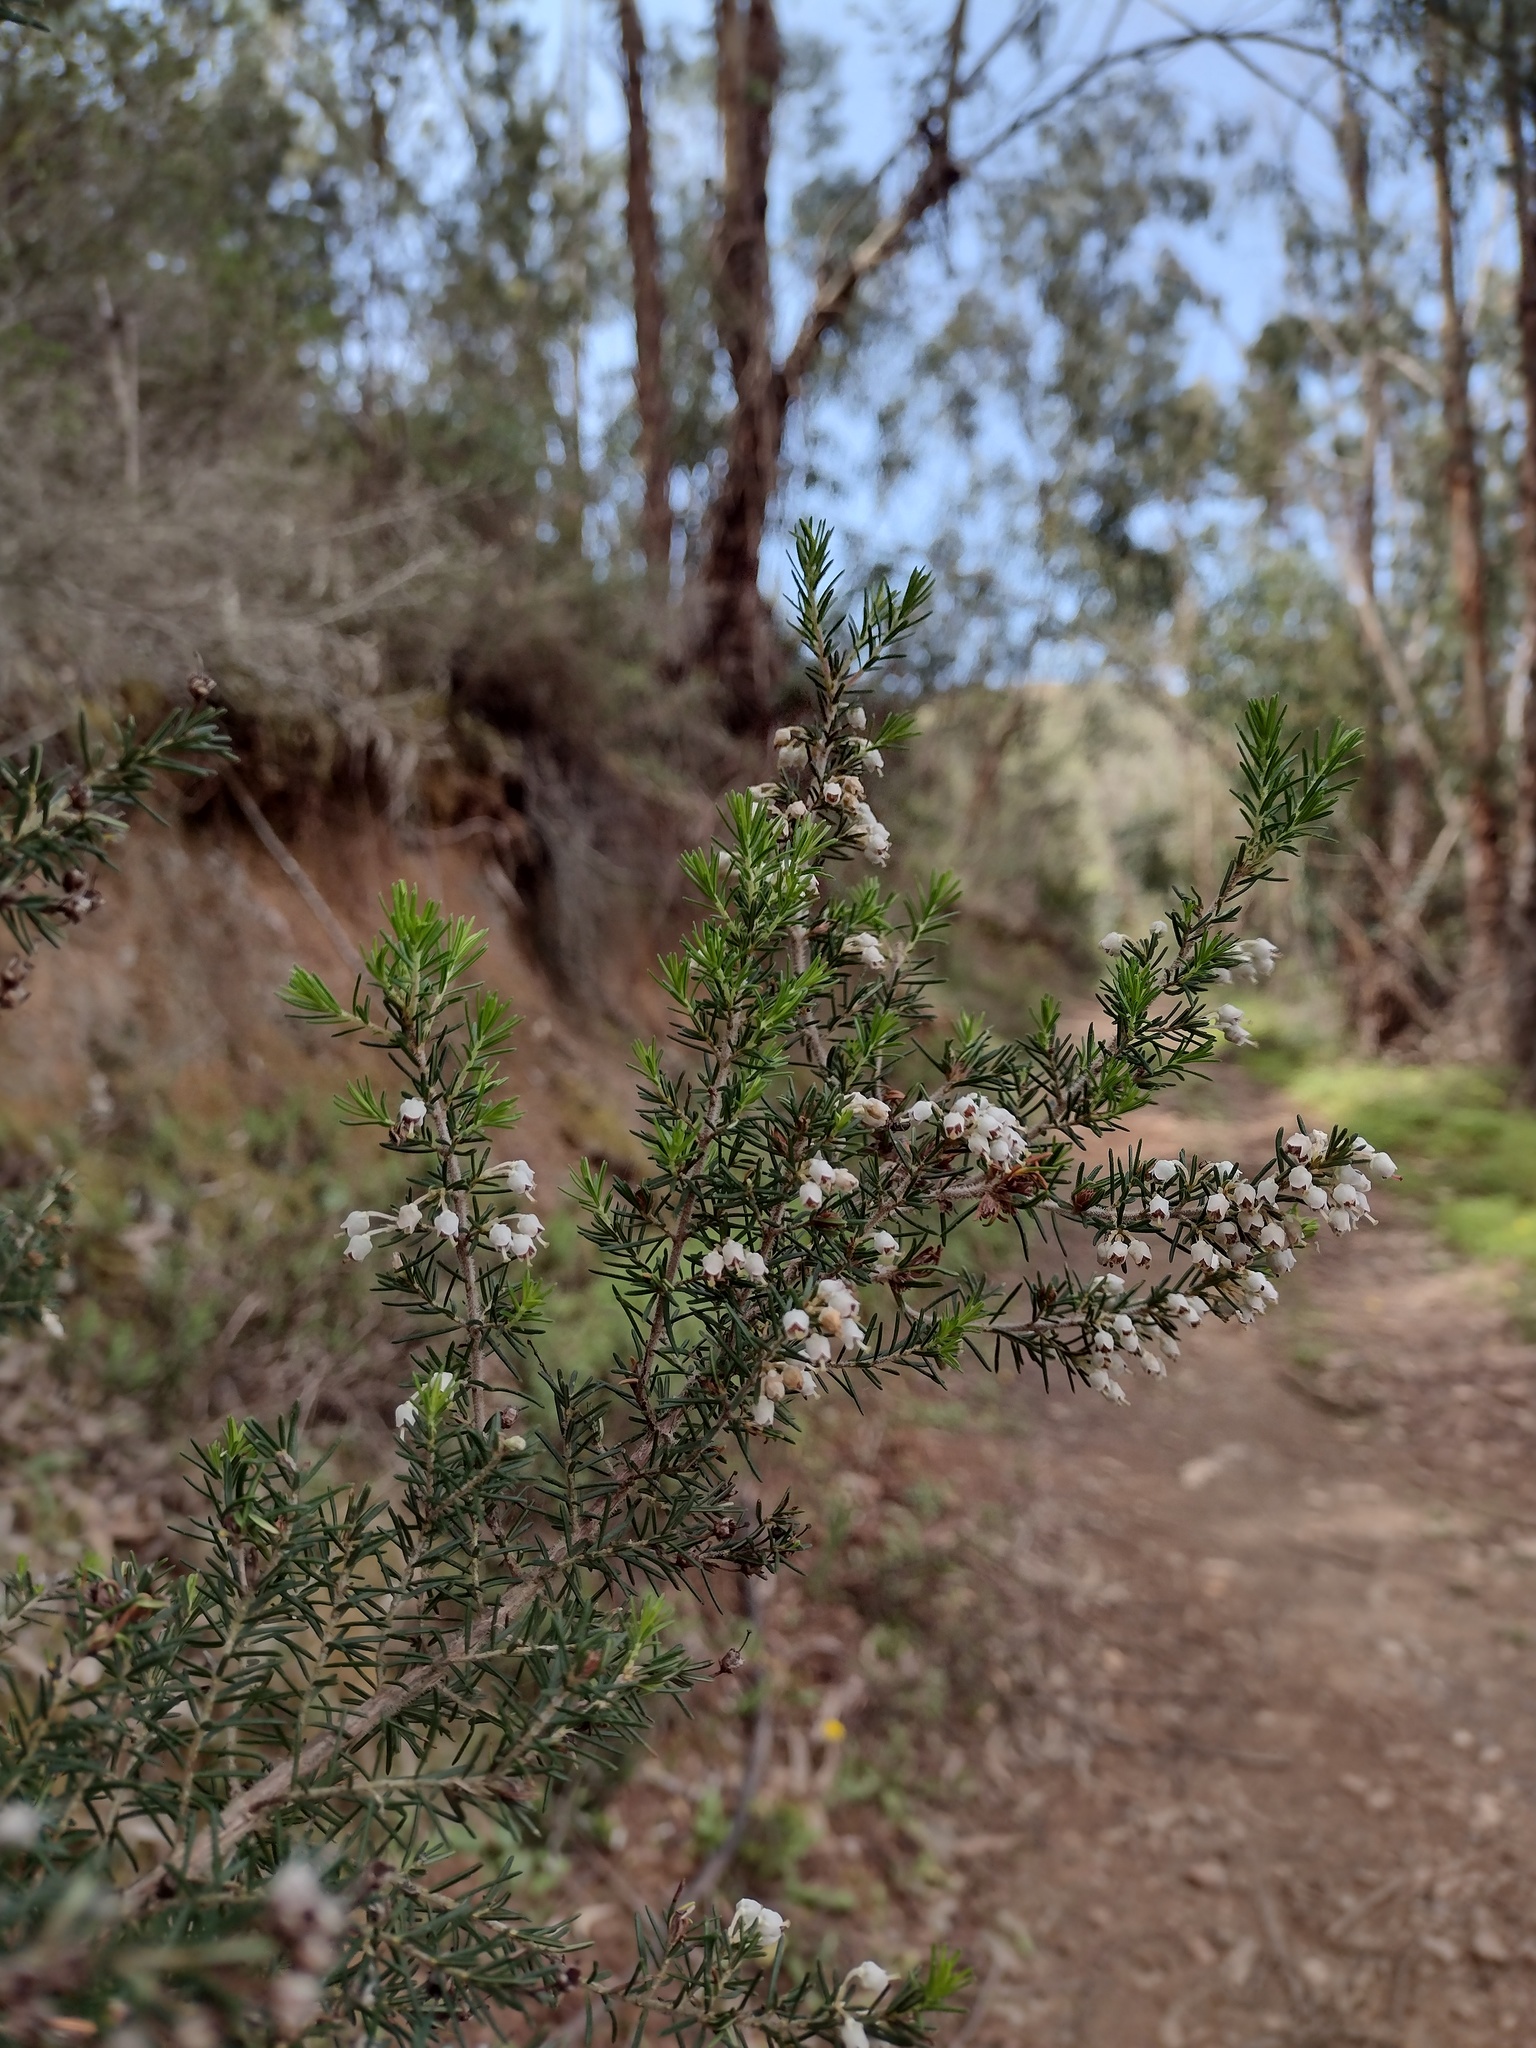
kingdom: Plantae
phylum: Tracheophyta
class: Magnoliopsida
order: Ericales
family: Ericaceae
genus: Erica
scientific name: Erica arborea
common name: Tree heath
